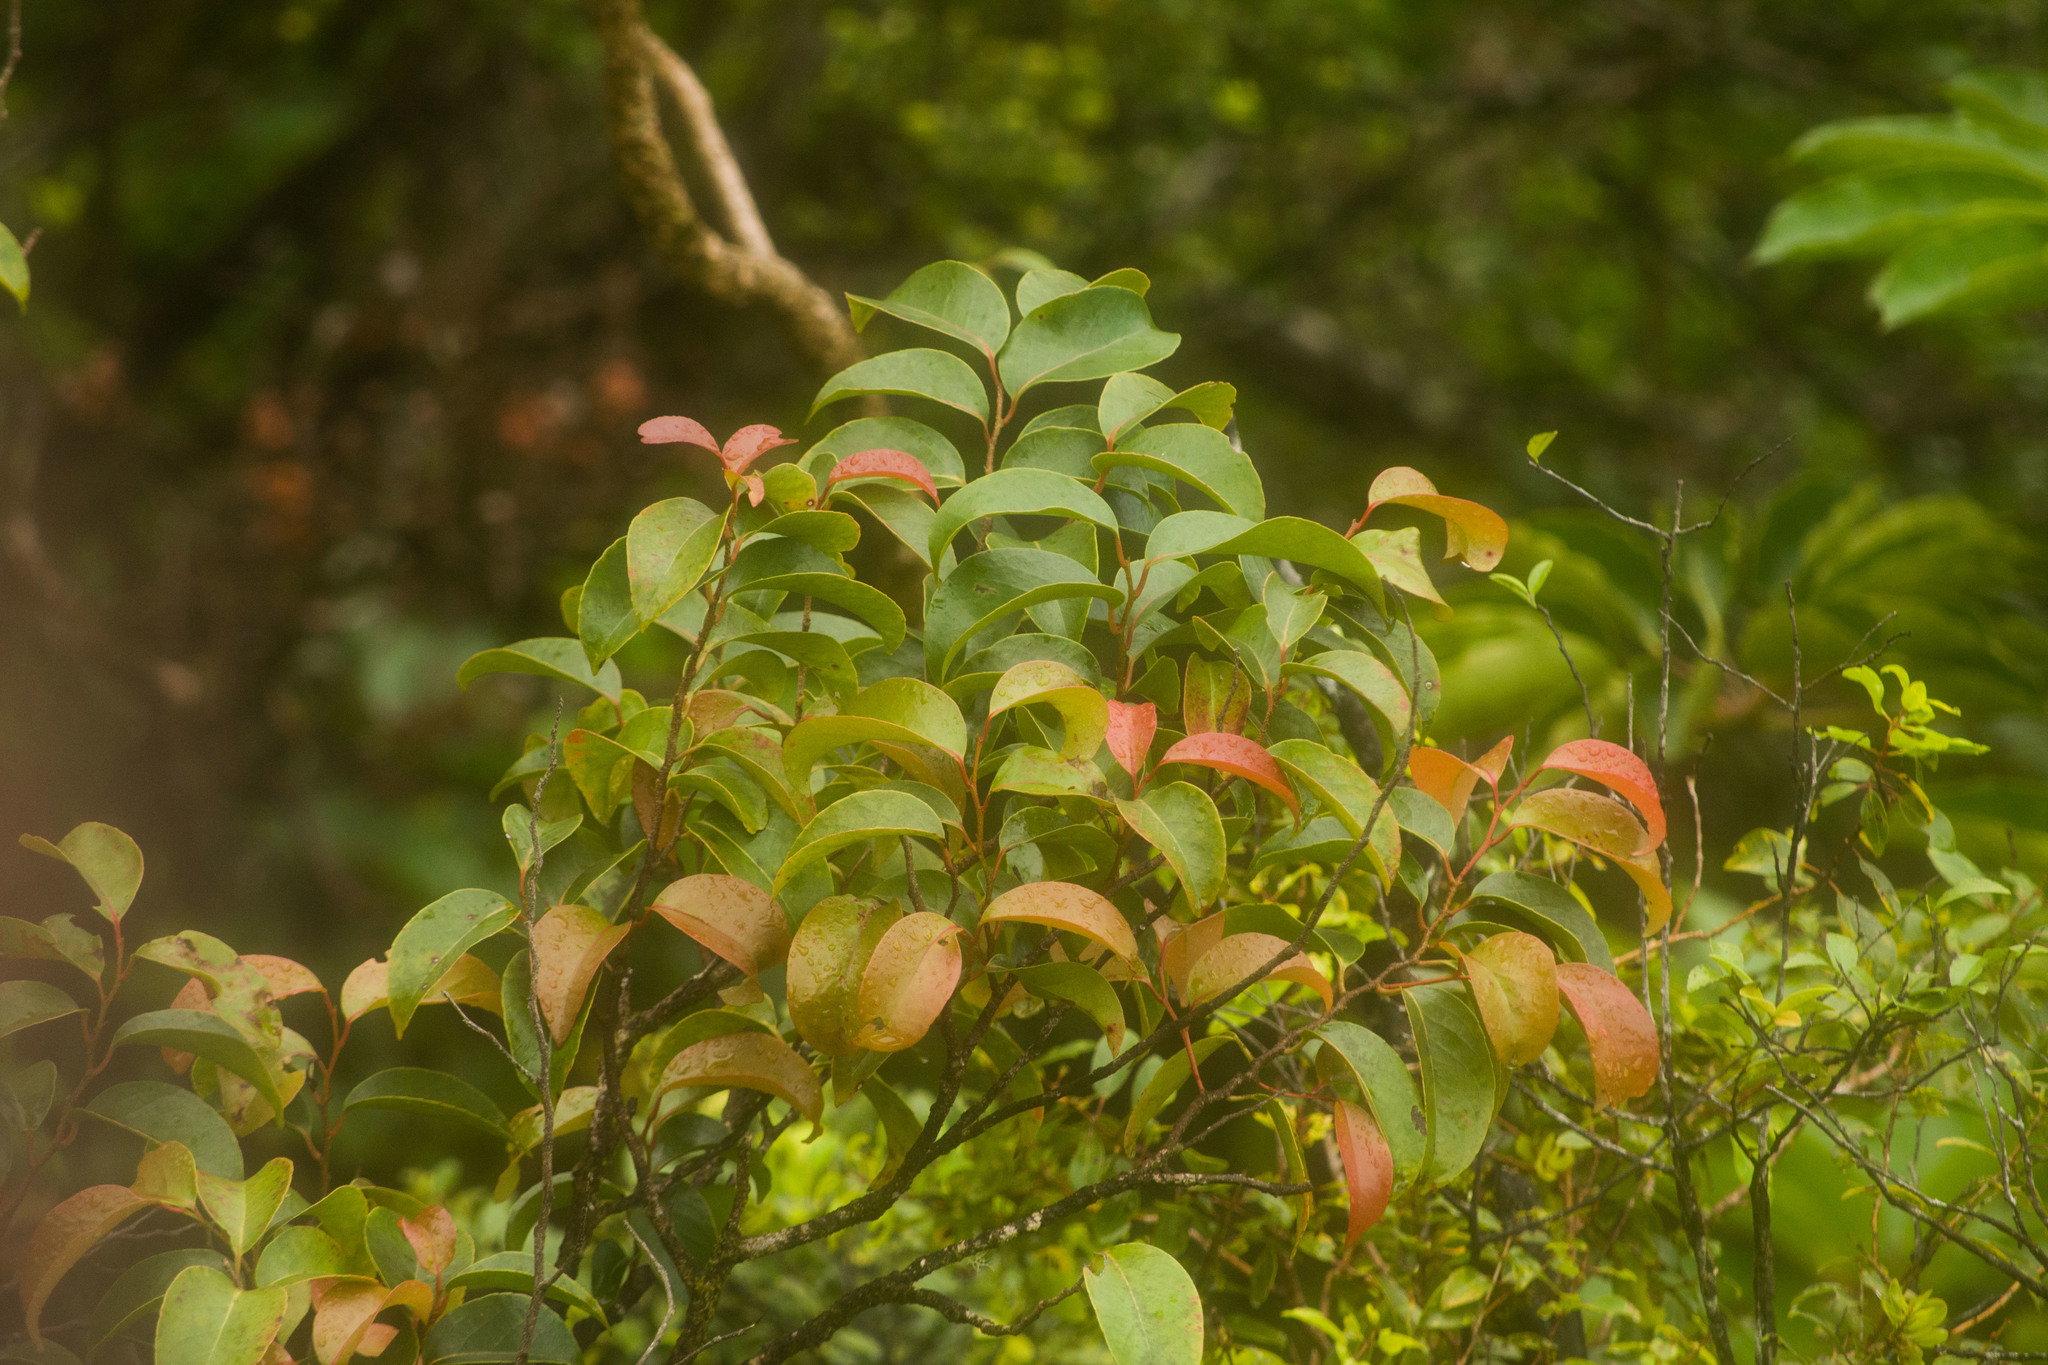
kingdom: Plantae
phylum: Tracheophyta
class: Magnoliopsida
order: Malpighiales
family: Phyllanthaceae
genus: Antidesma
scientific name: Antidesma platyphyllum
